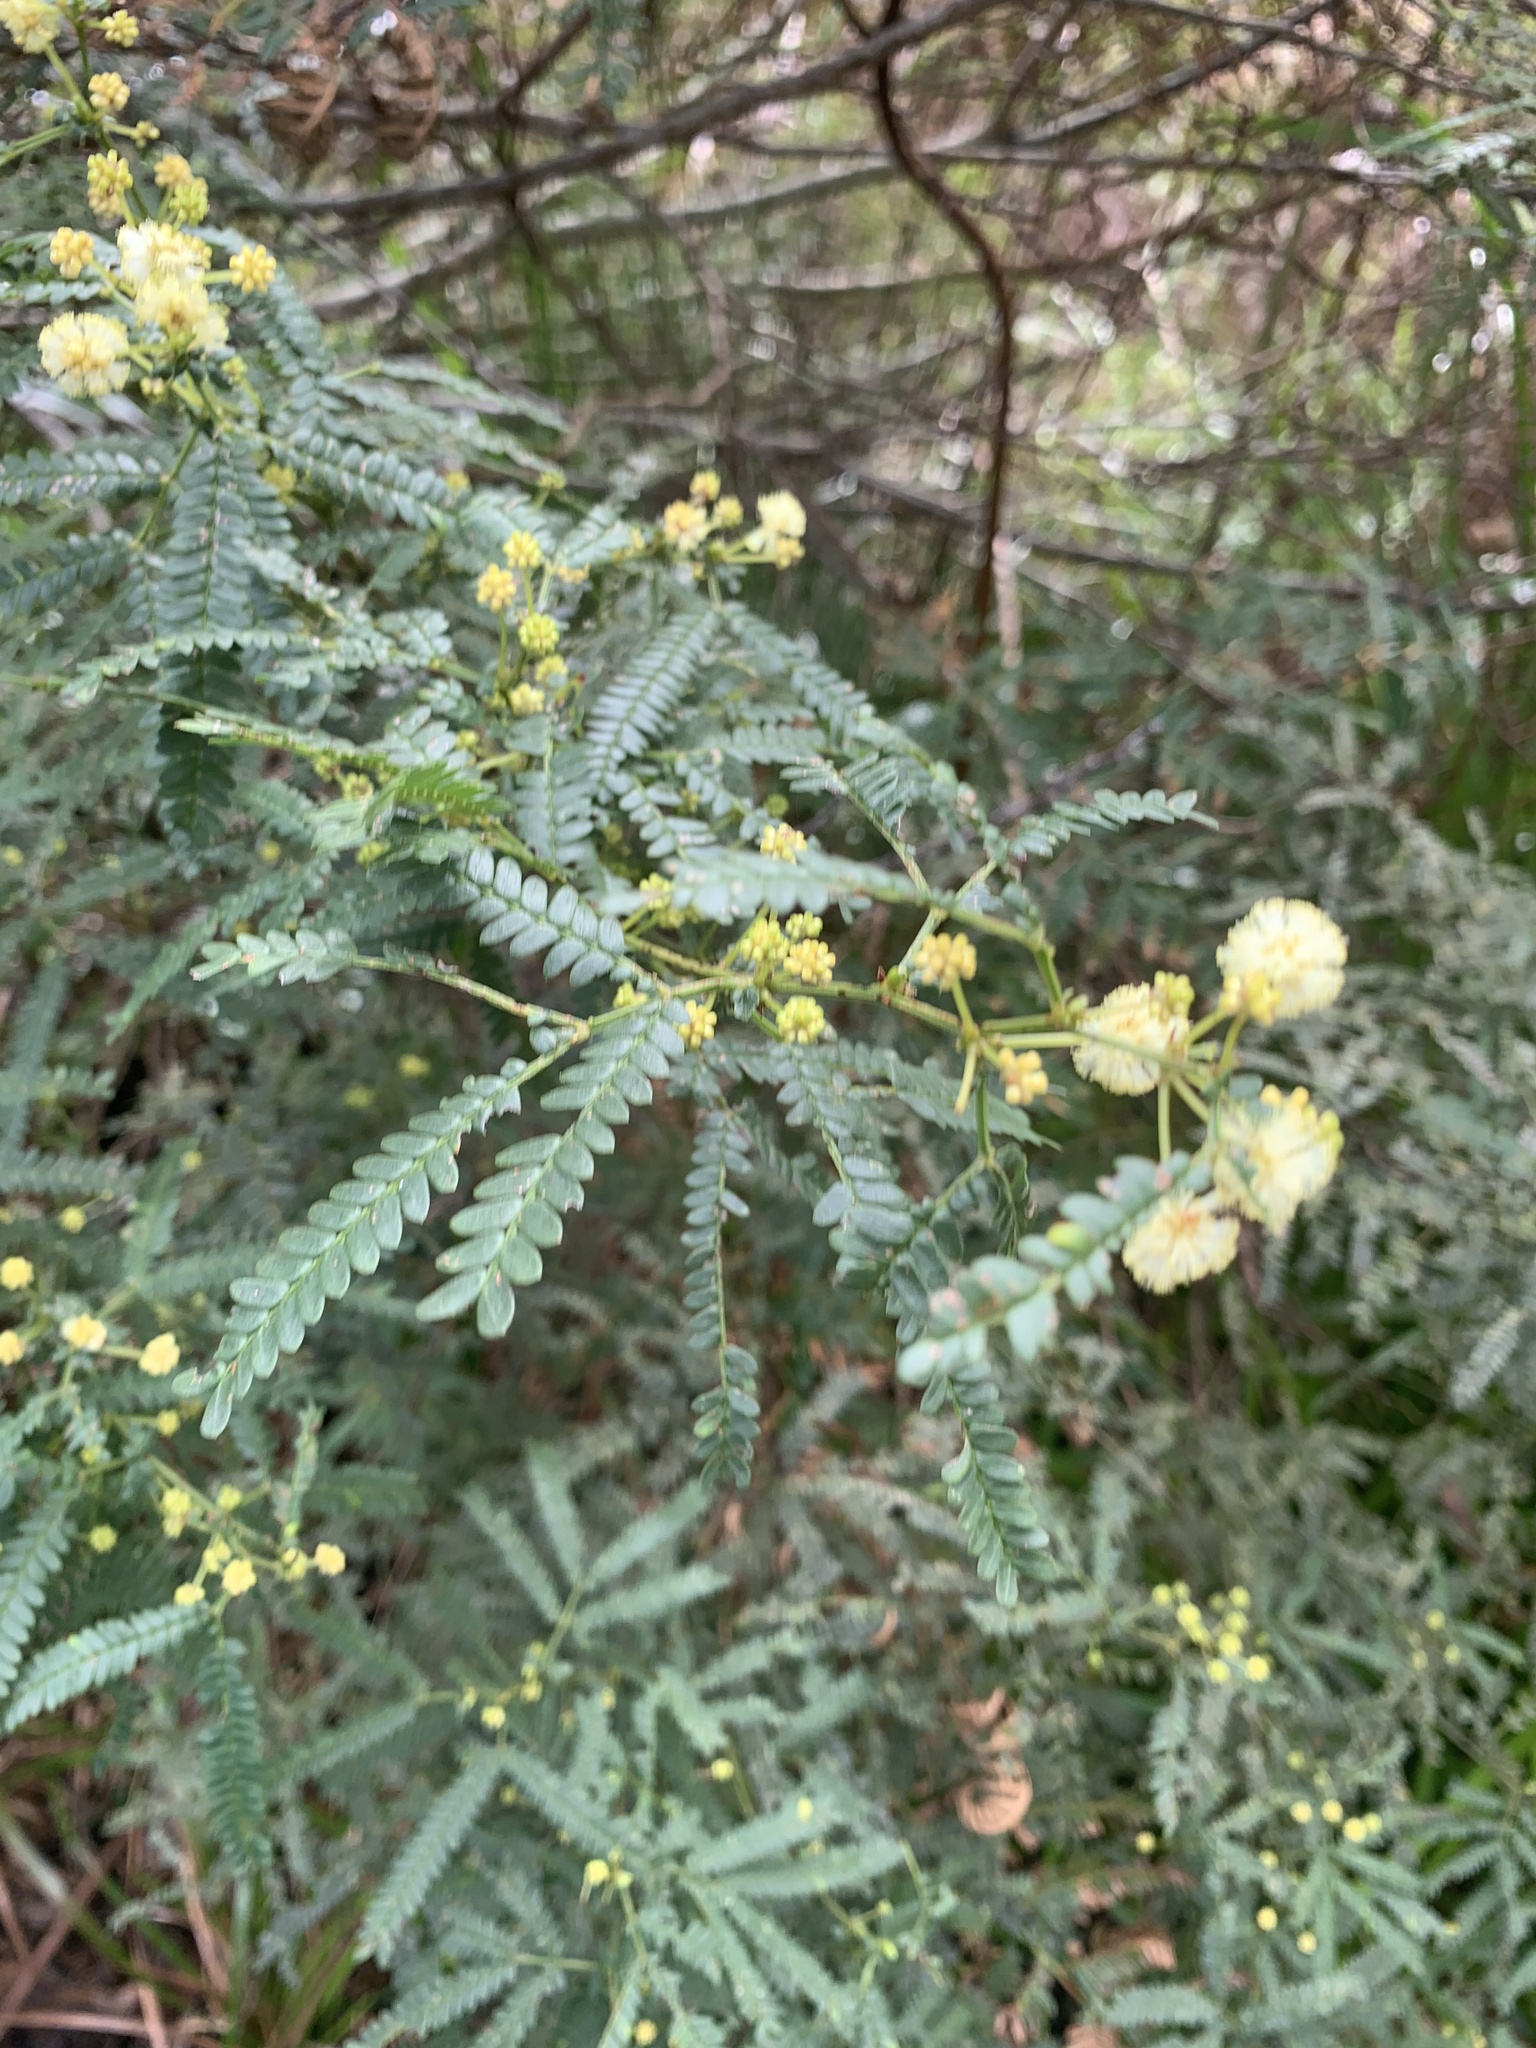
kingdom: Plantae
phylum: Tracheophyta
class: Magnoliopsida
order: Fabales
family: Fabaceae
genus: Acacia
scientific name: Acacia pentadenia
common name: Karri wattle
